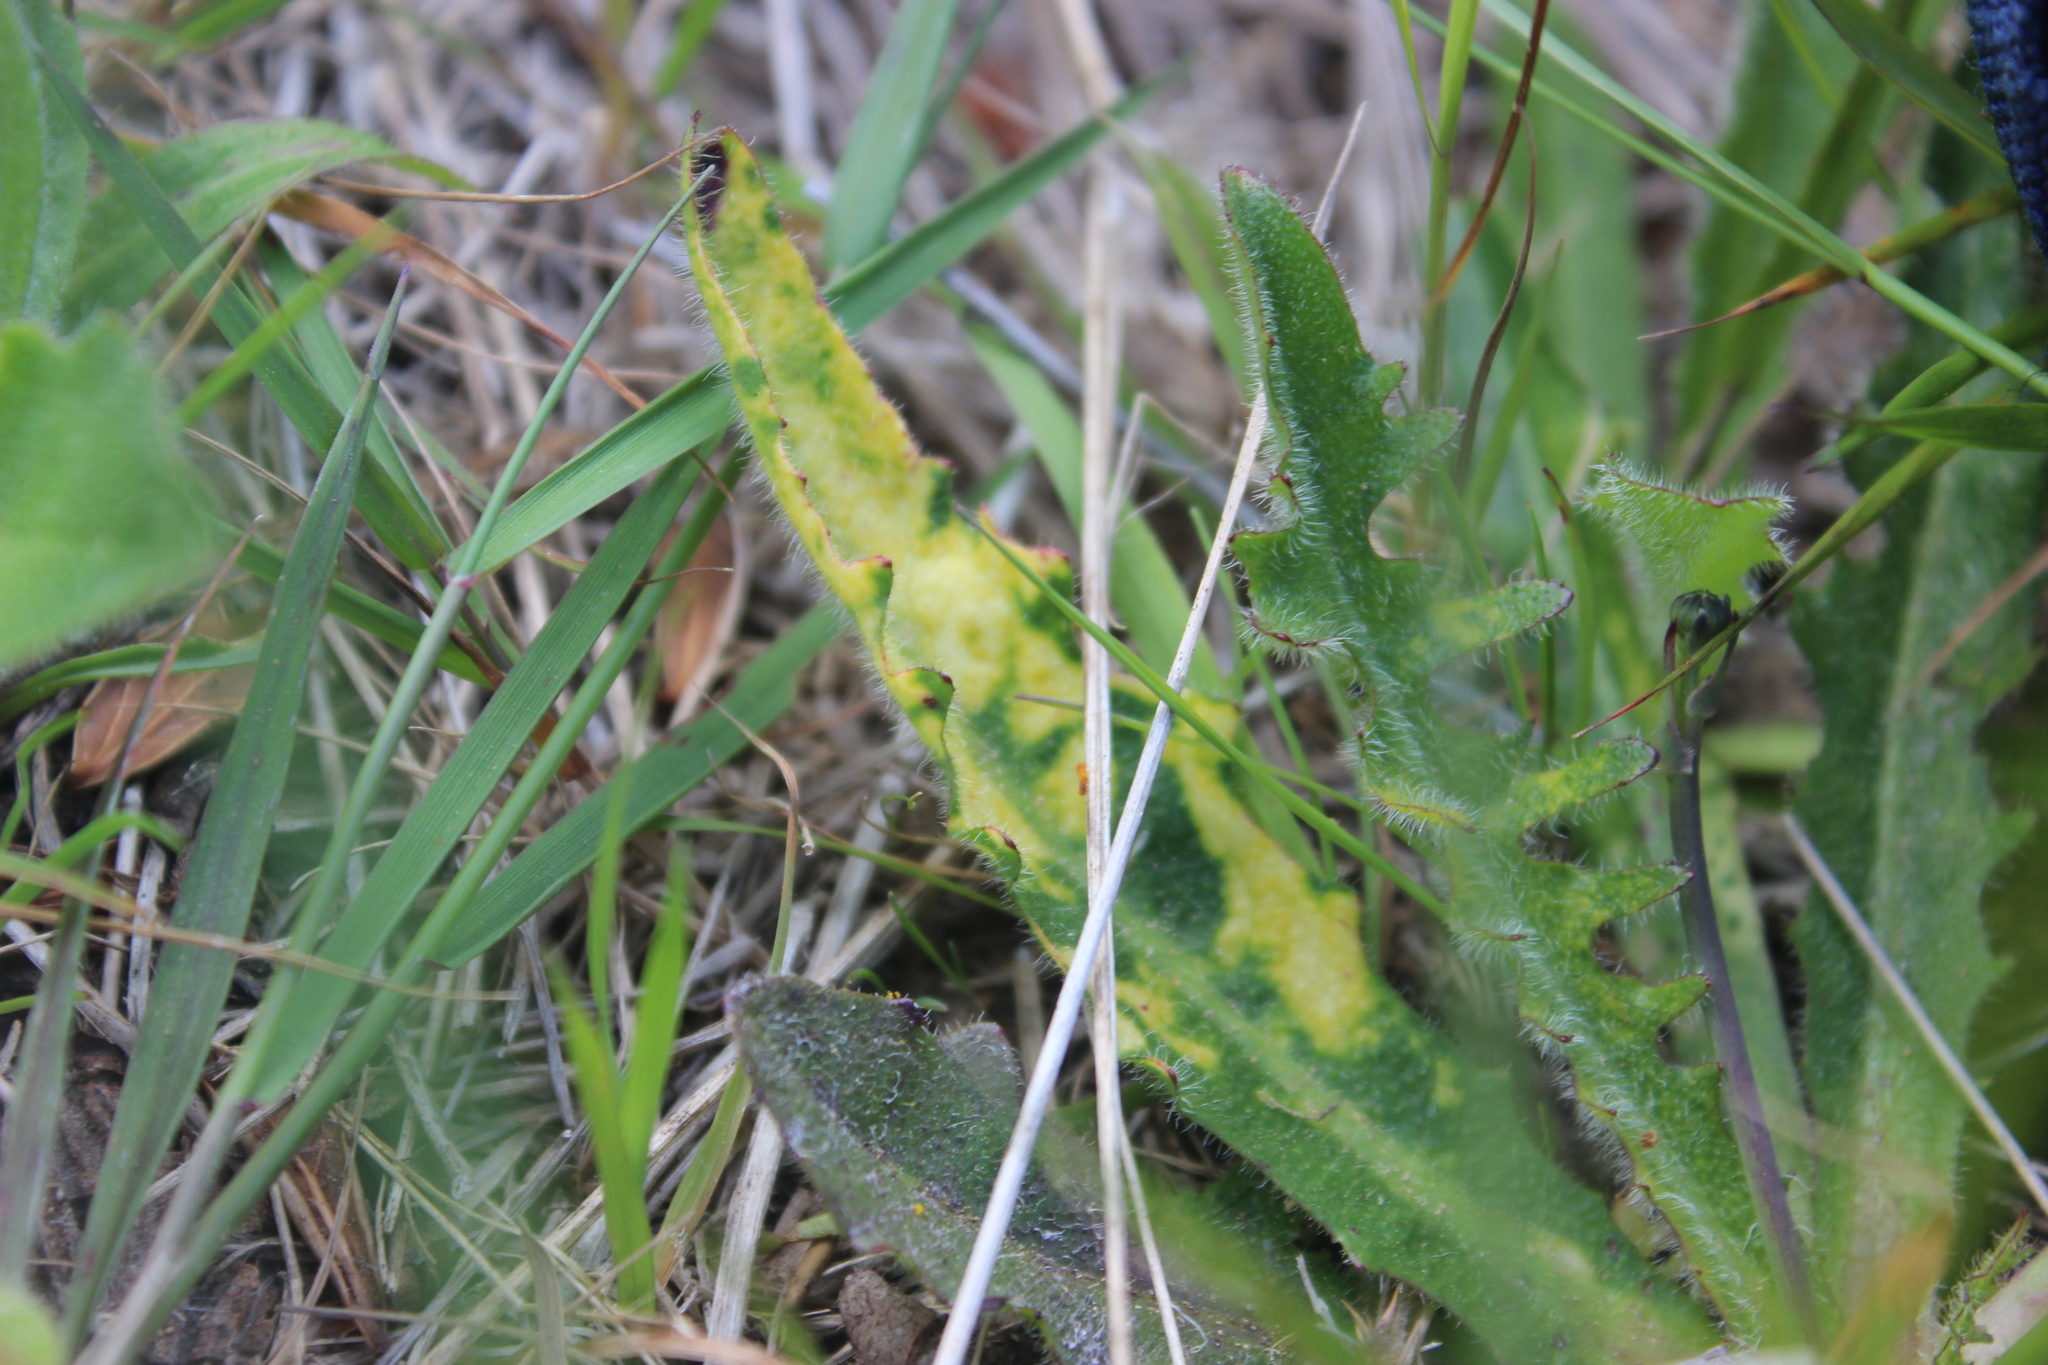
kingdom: Viruses
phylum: Kitrinoviricota
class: Alsuviricetes
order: Martellivirales
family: Virgaviridae
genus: Furovirus
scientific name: Furovirus
